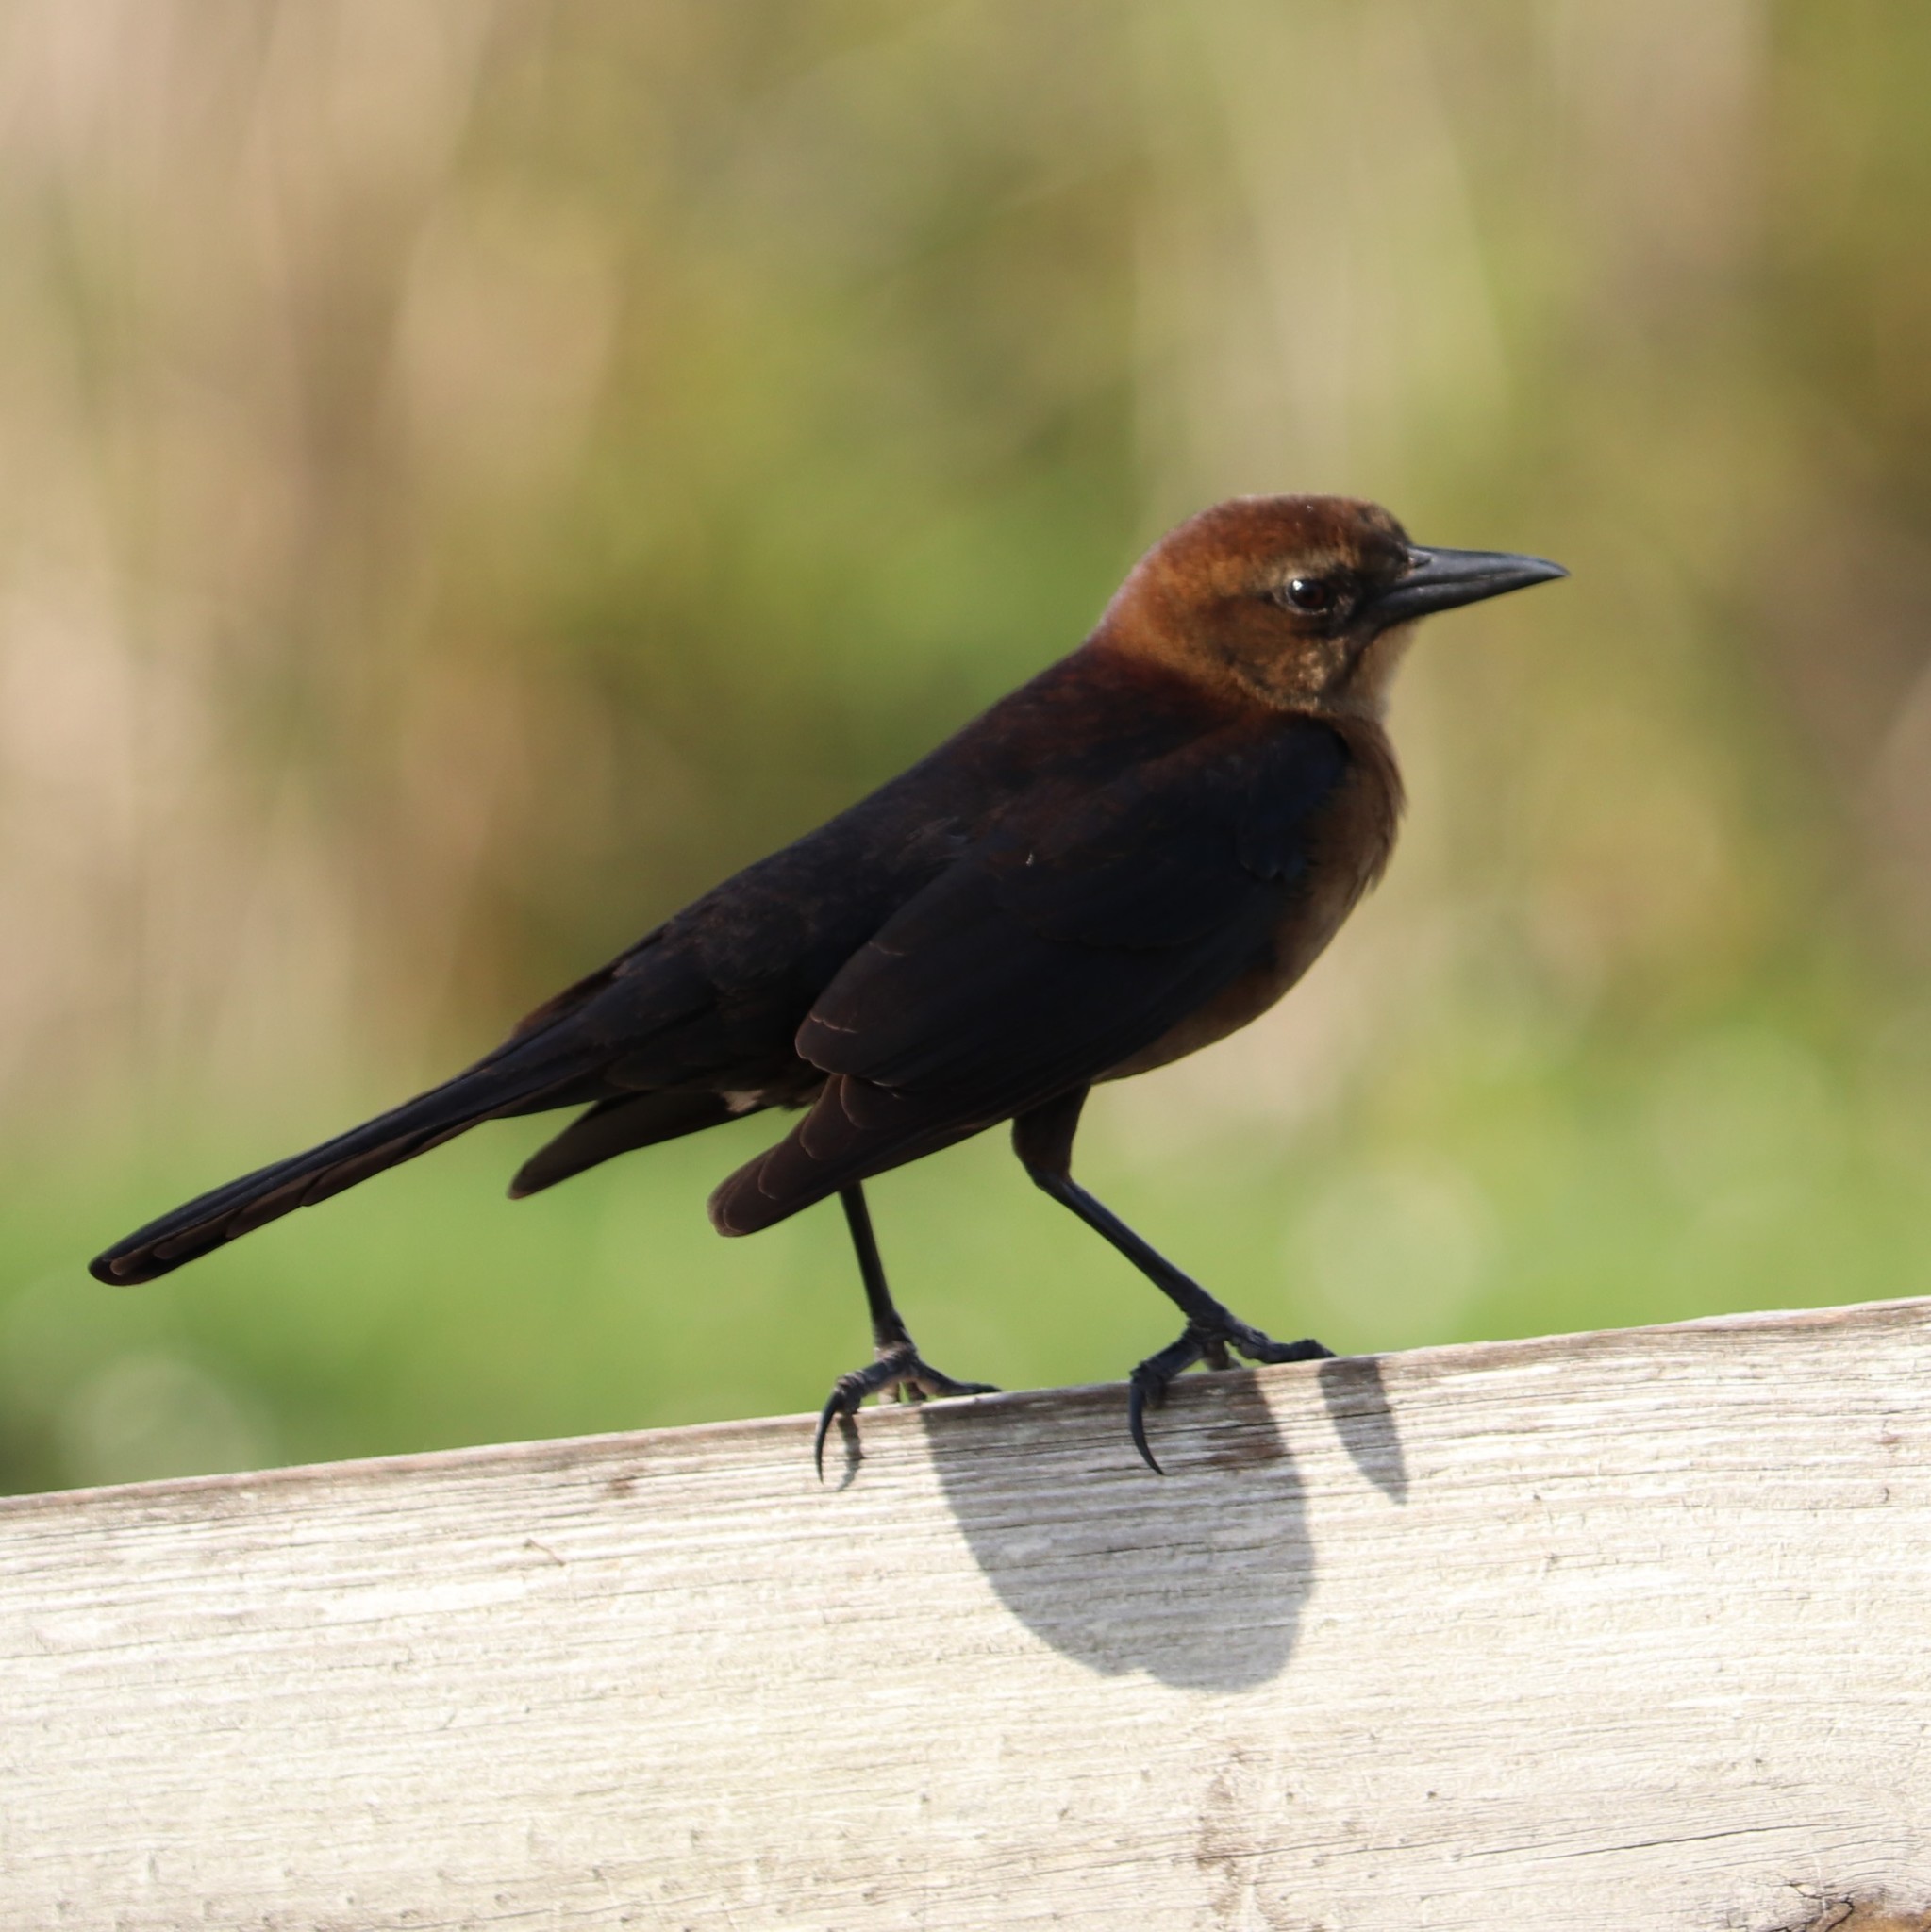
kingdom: Animalia
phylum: Chordata
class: Aves
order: Passeriformes
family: Icteridae
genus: Quiscalus
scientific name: Quiscalus major
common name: Boat-tailed grackle
